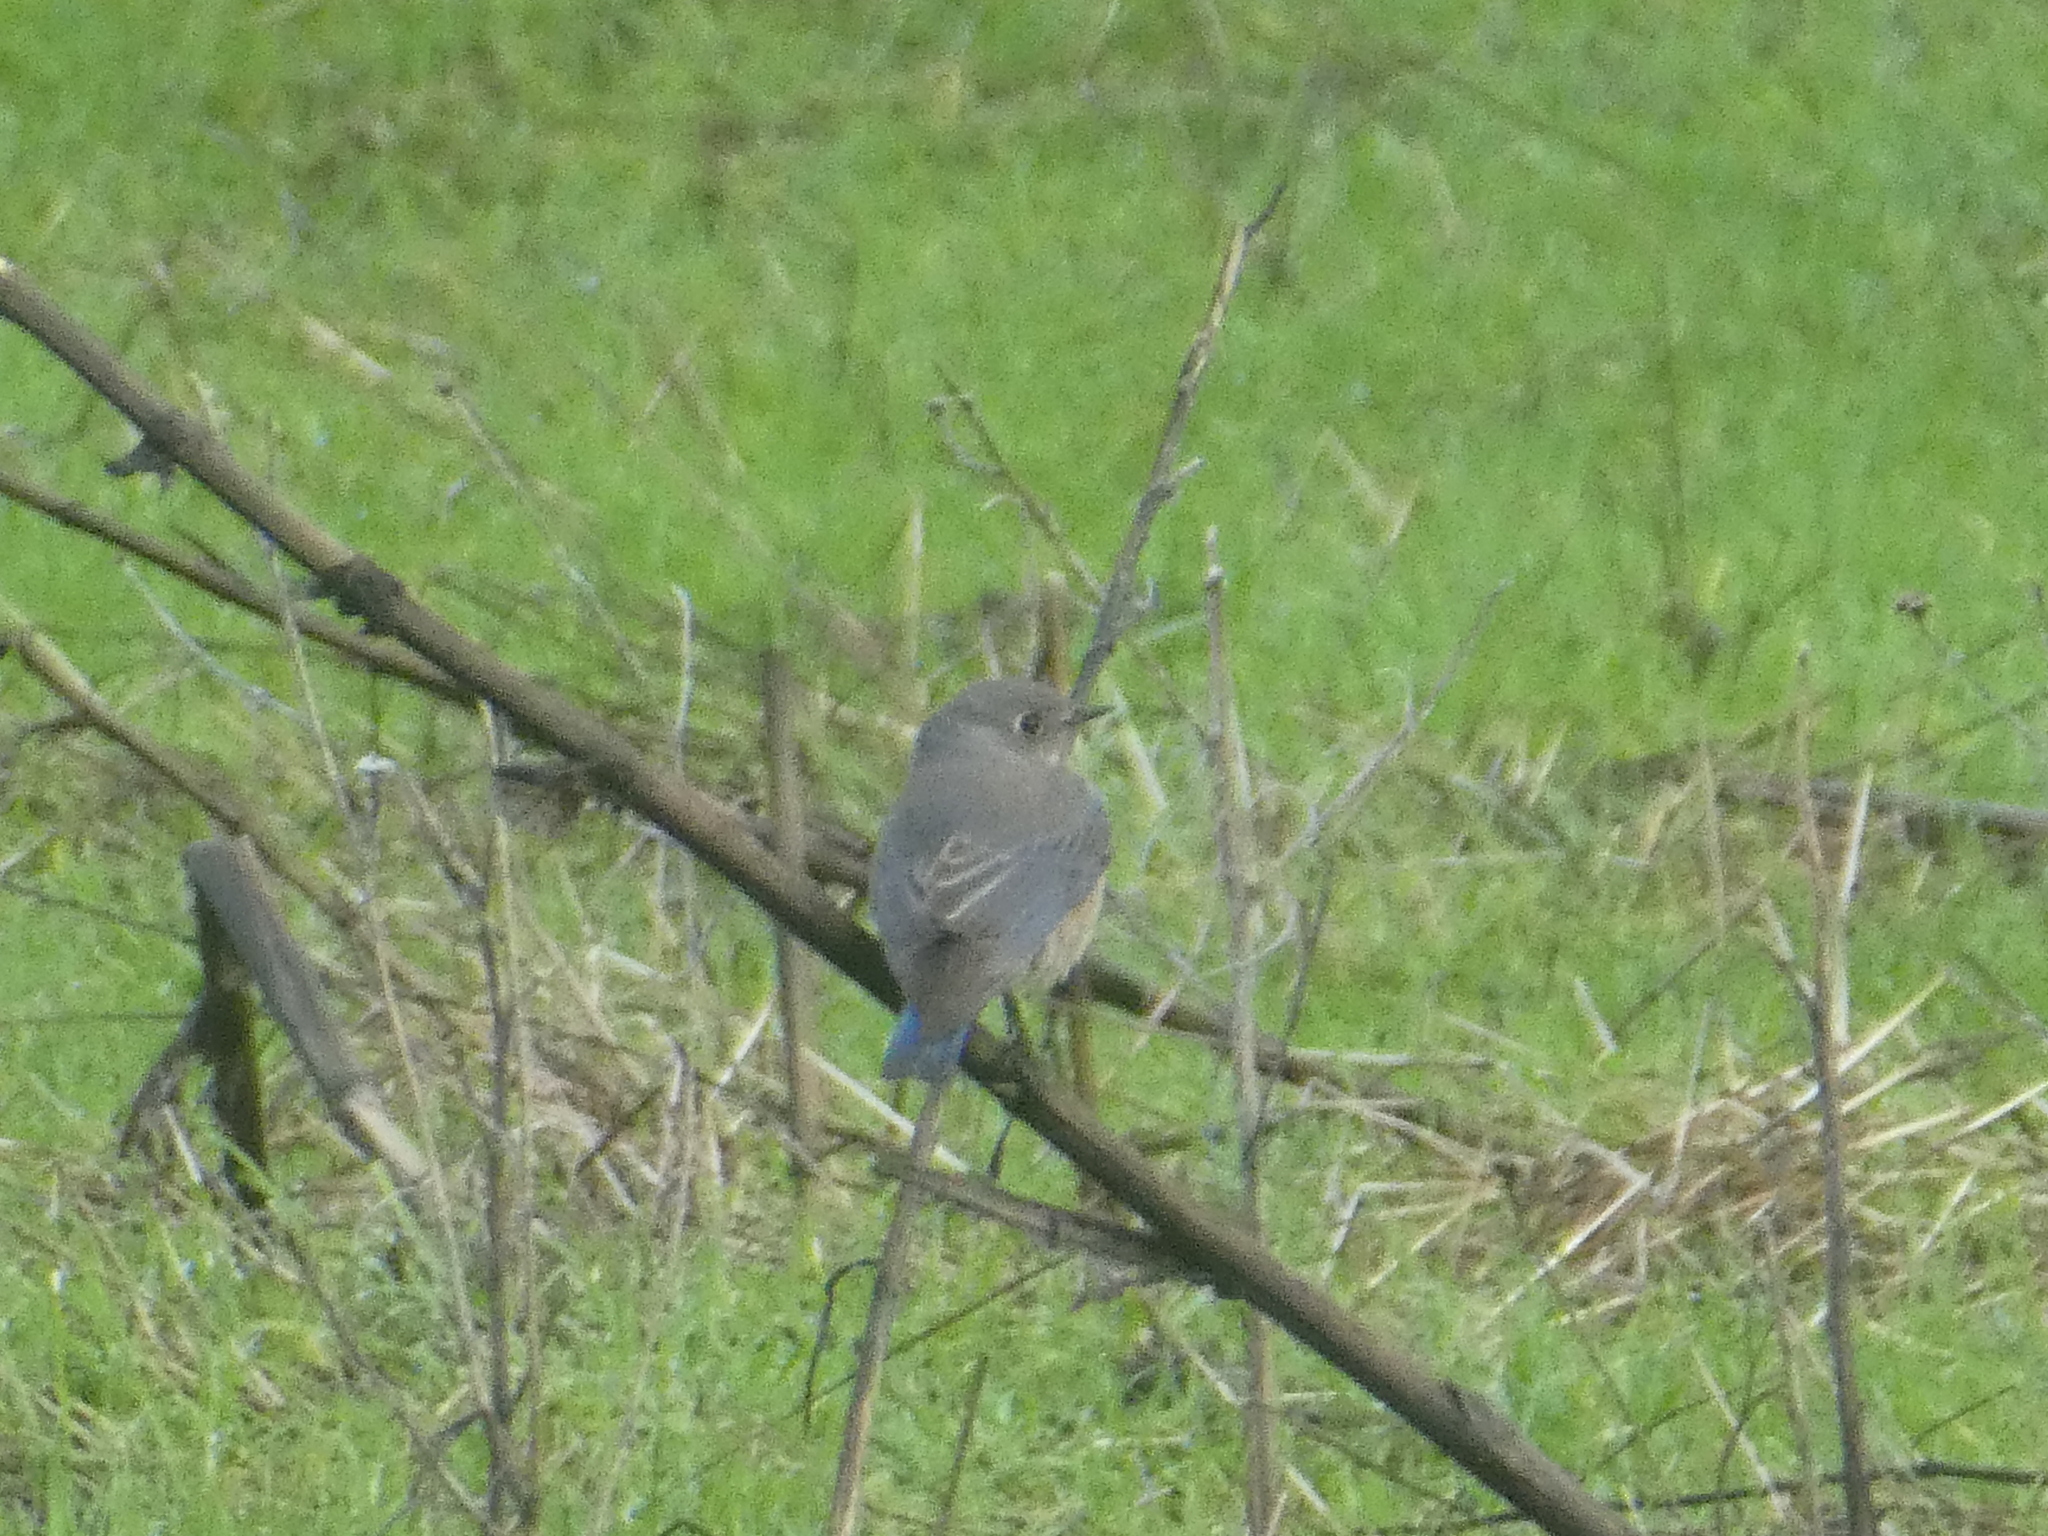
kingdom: Animalia
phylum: Chordata
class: Aves
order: Passeriformes
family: Turdidae
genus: Sialia
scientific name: Sialia mexicana
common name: Western bluebird
